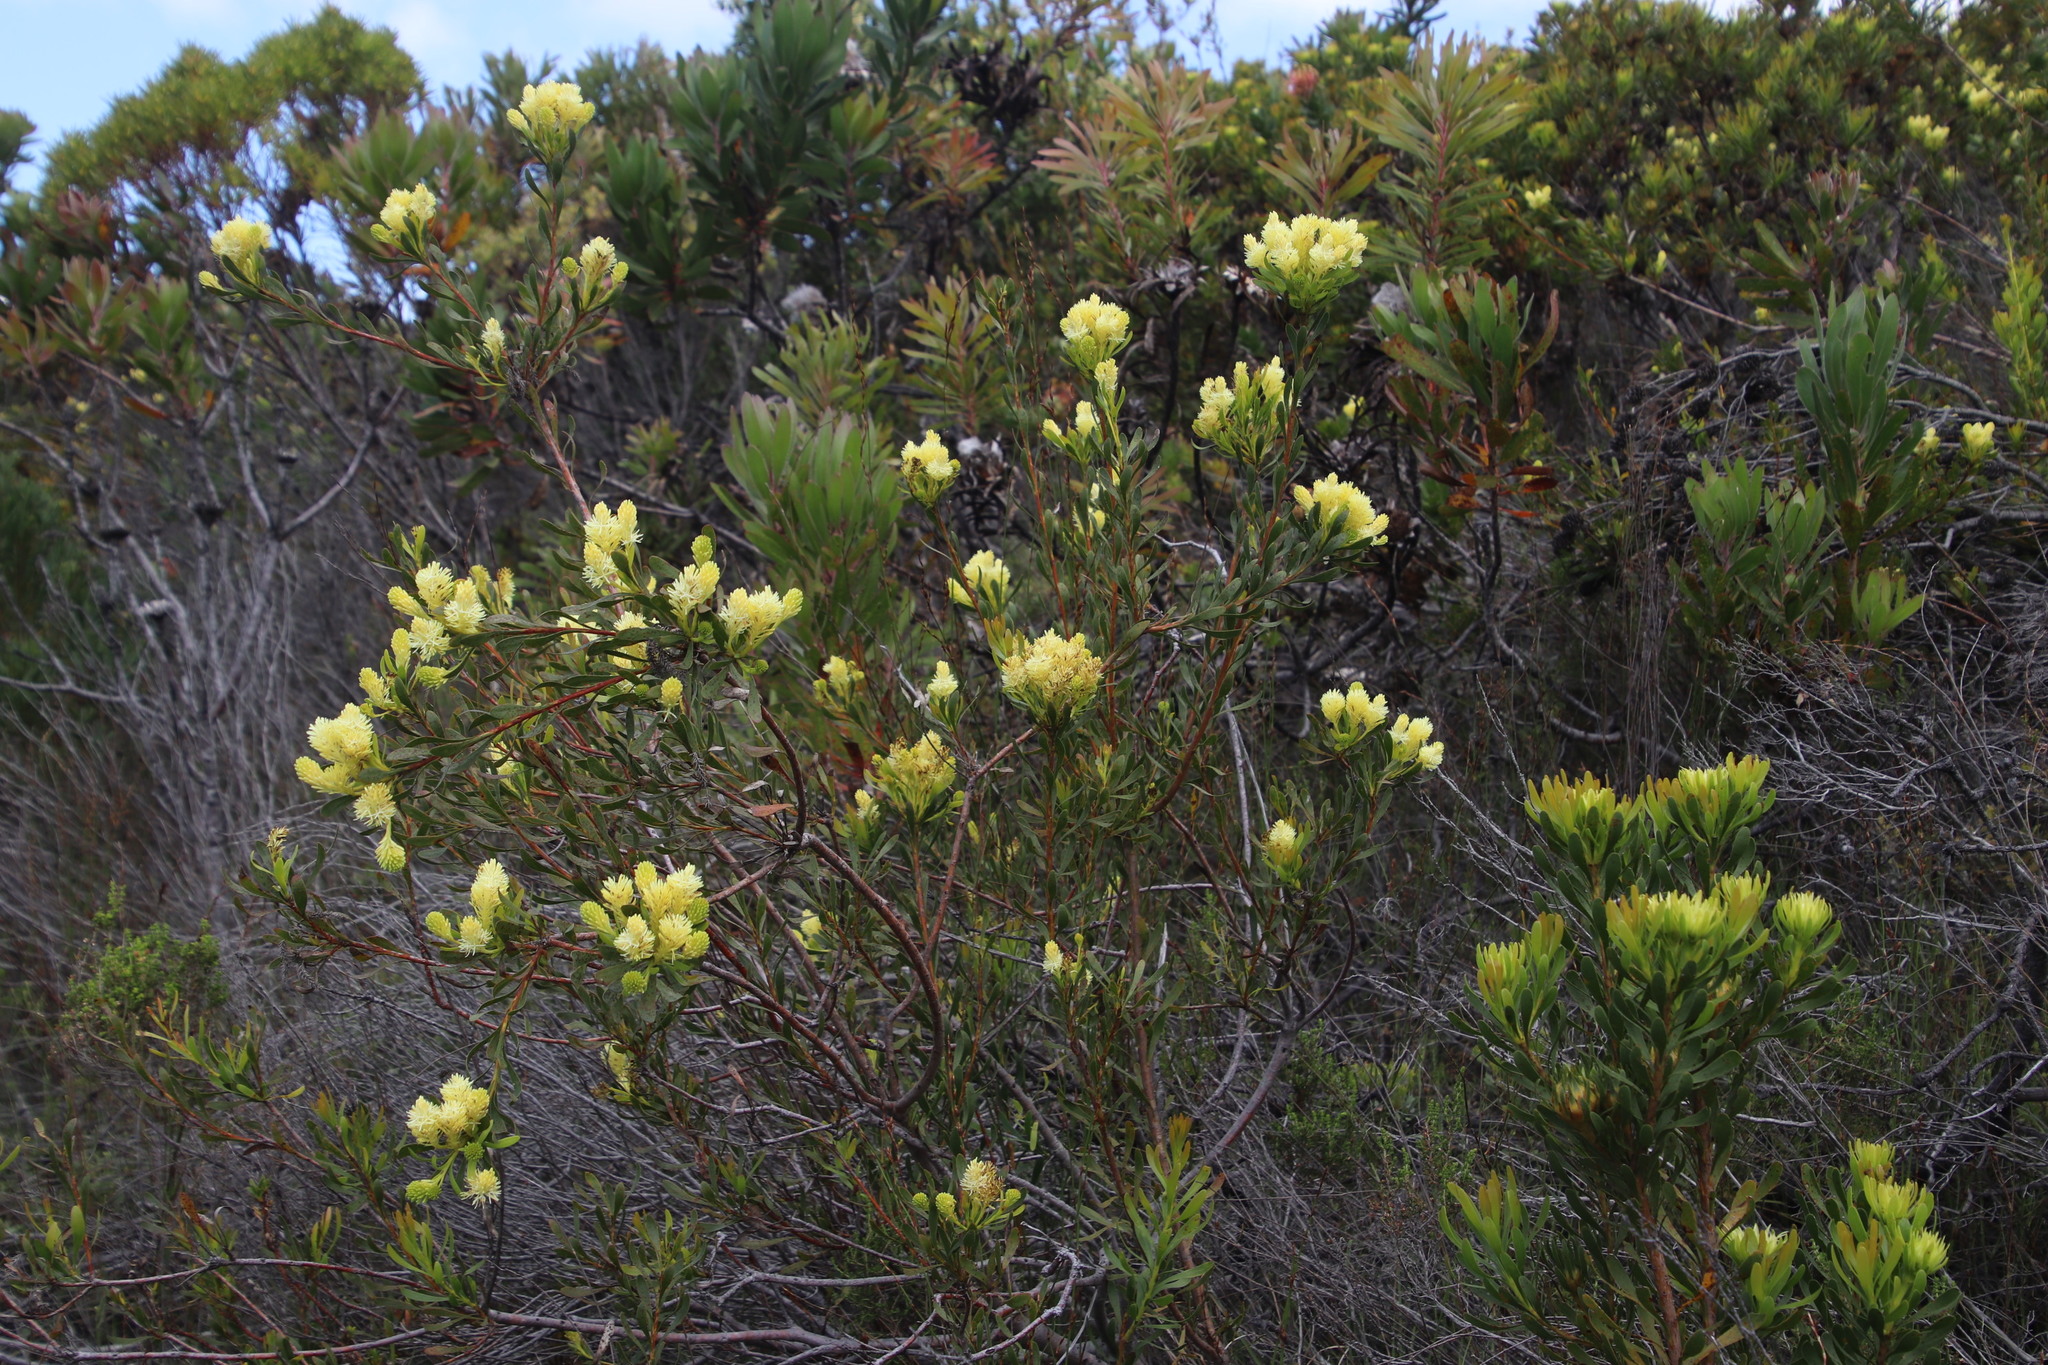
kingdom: Plantae
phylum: Tracheophyta
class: Magnoliopsida
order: Proteales
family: Proteaceae
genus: Aulax
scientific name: Aulax umbellata
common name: Broad-leaf featherbush
